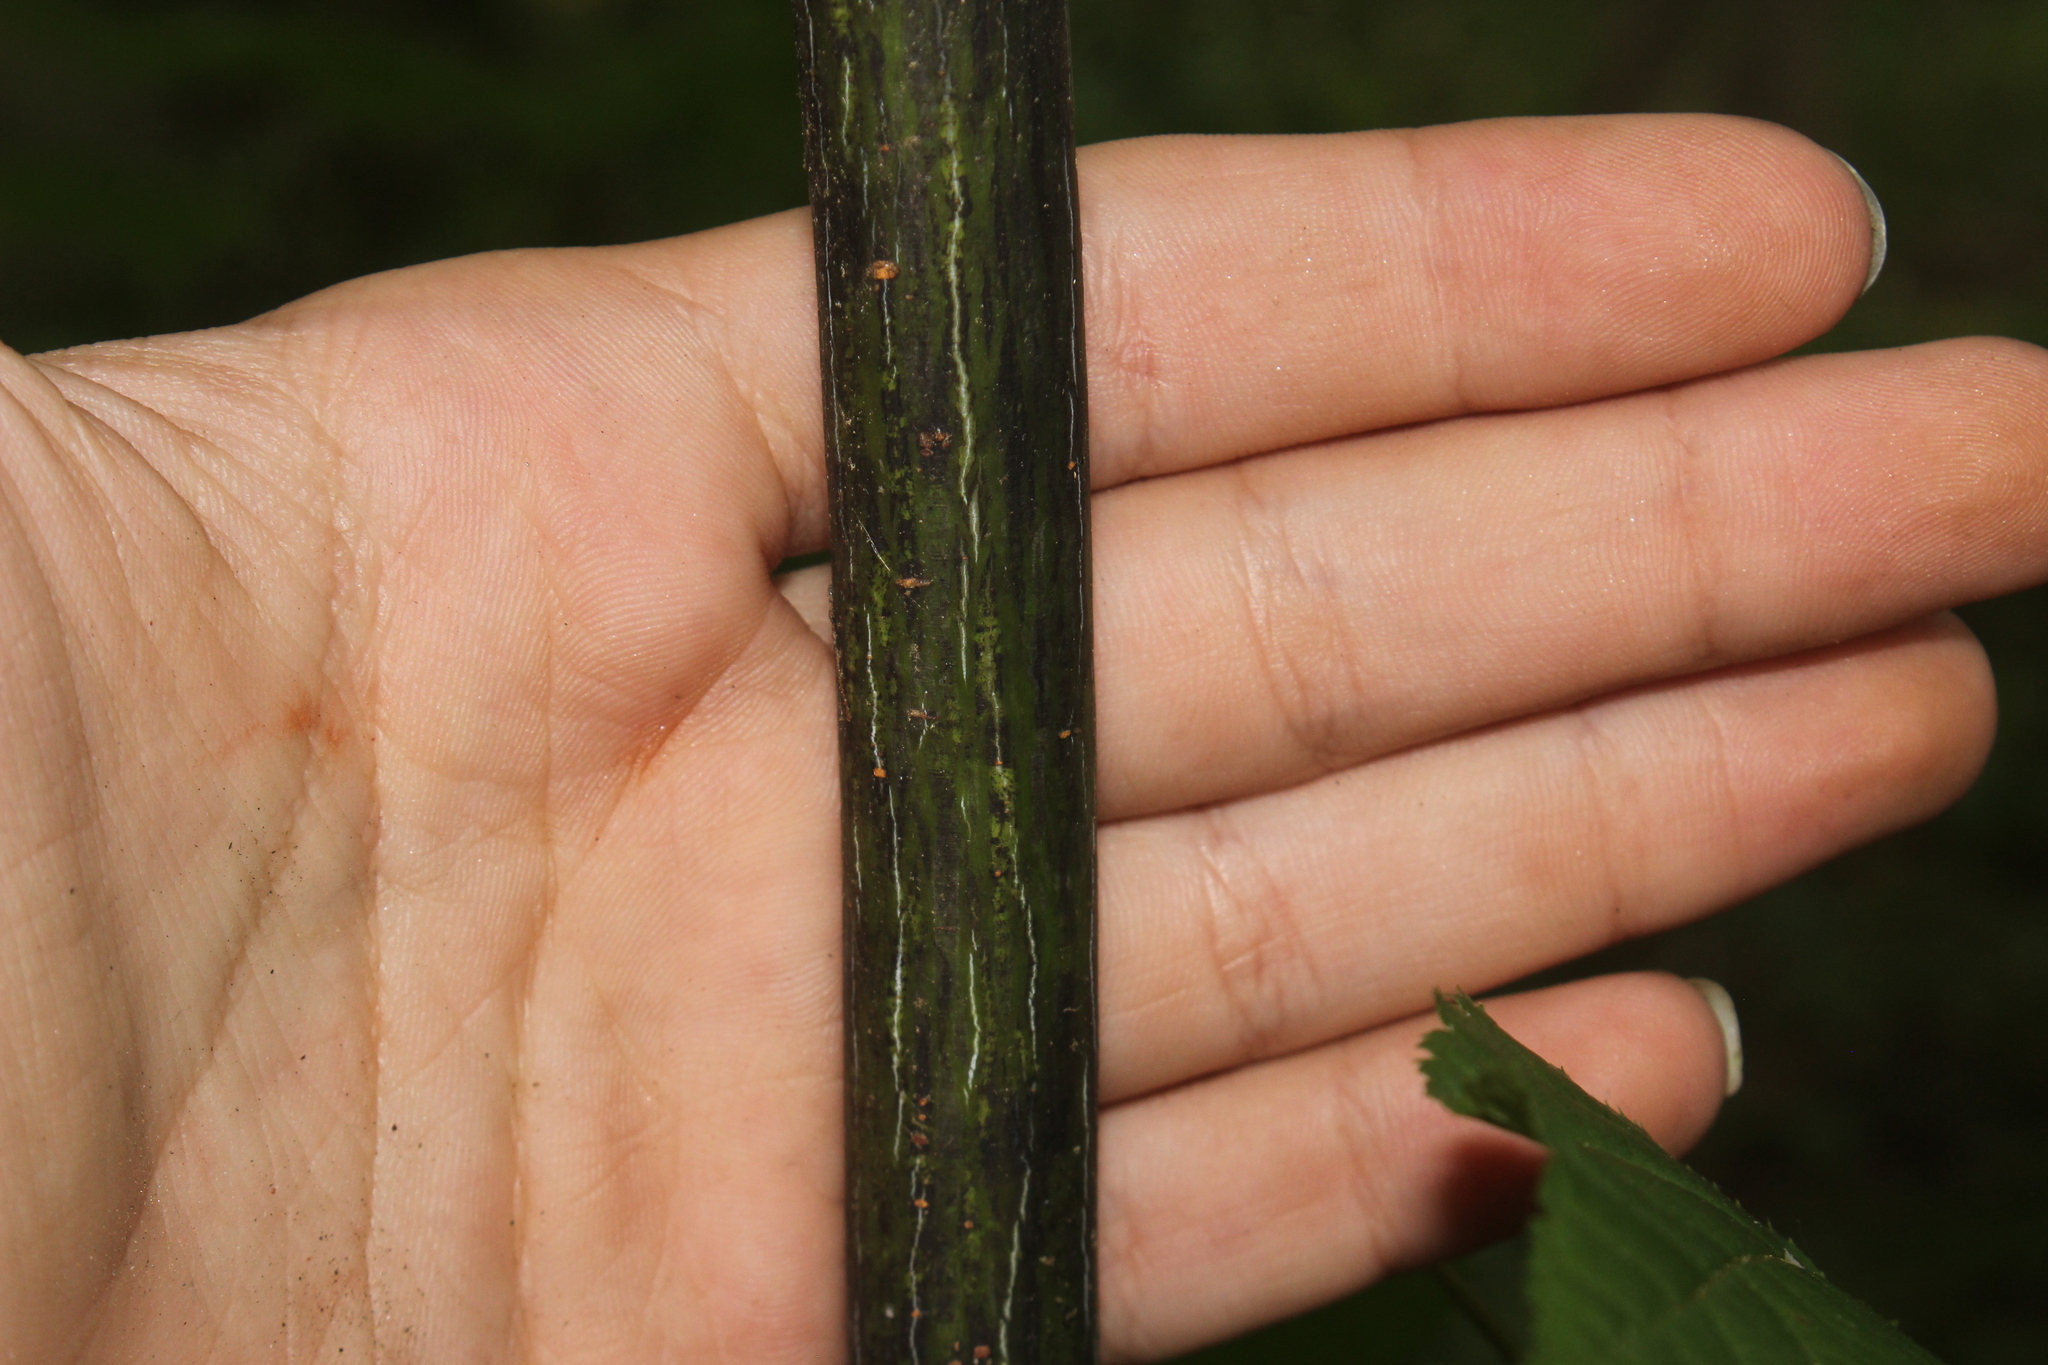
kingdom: Plantae
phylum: Tracheophyta
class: Magnoliopsida
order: Sapindales
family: Sapindaceae
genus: Acer
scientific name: Acer pensylvanicum
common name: Moosewood
